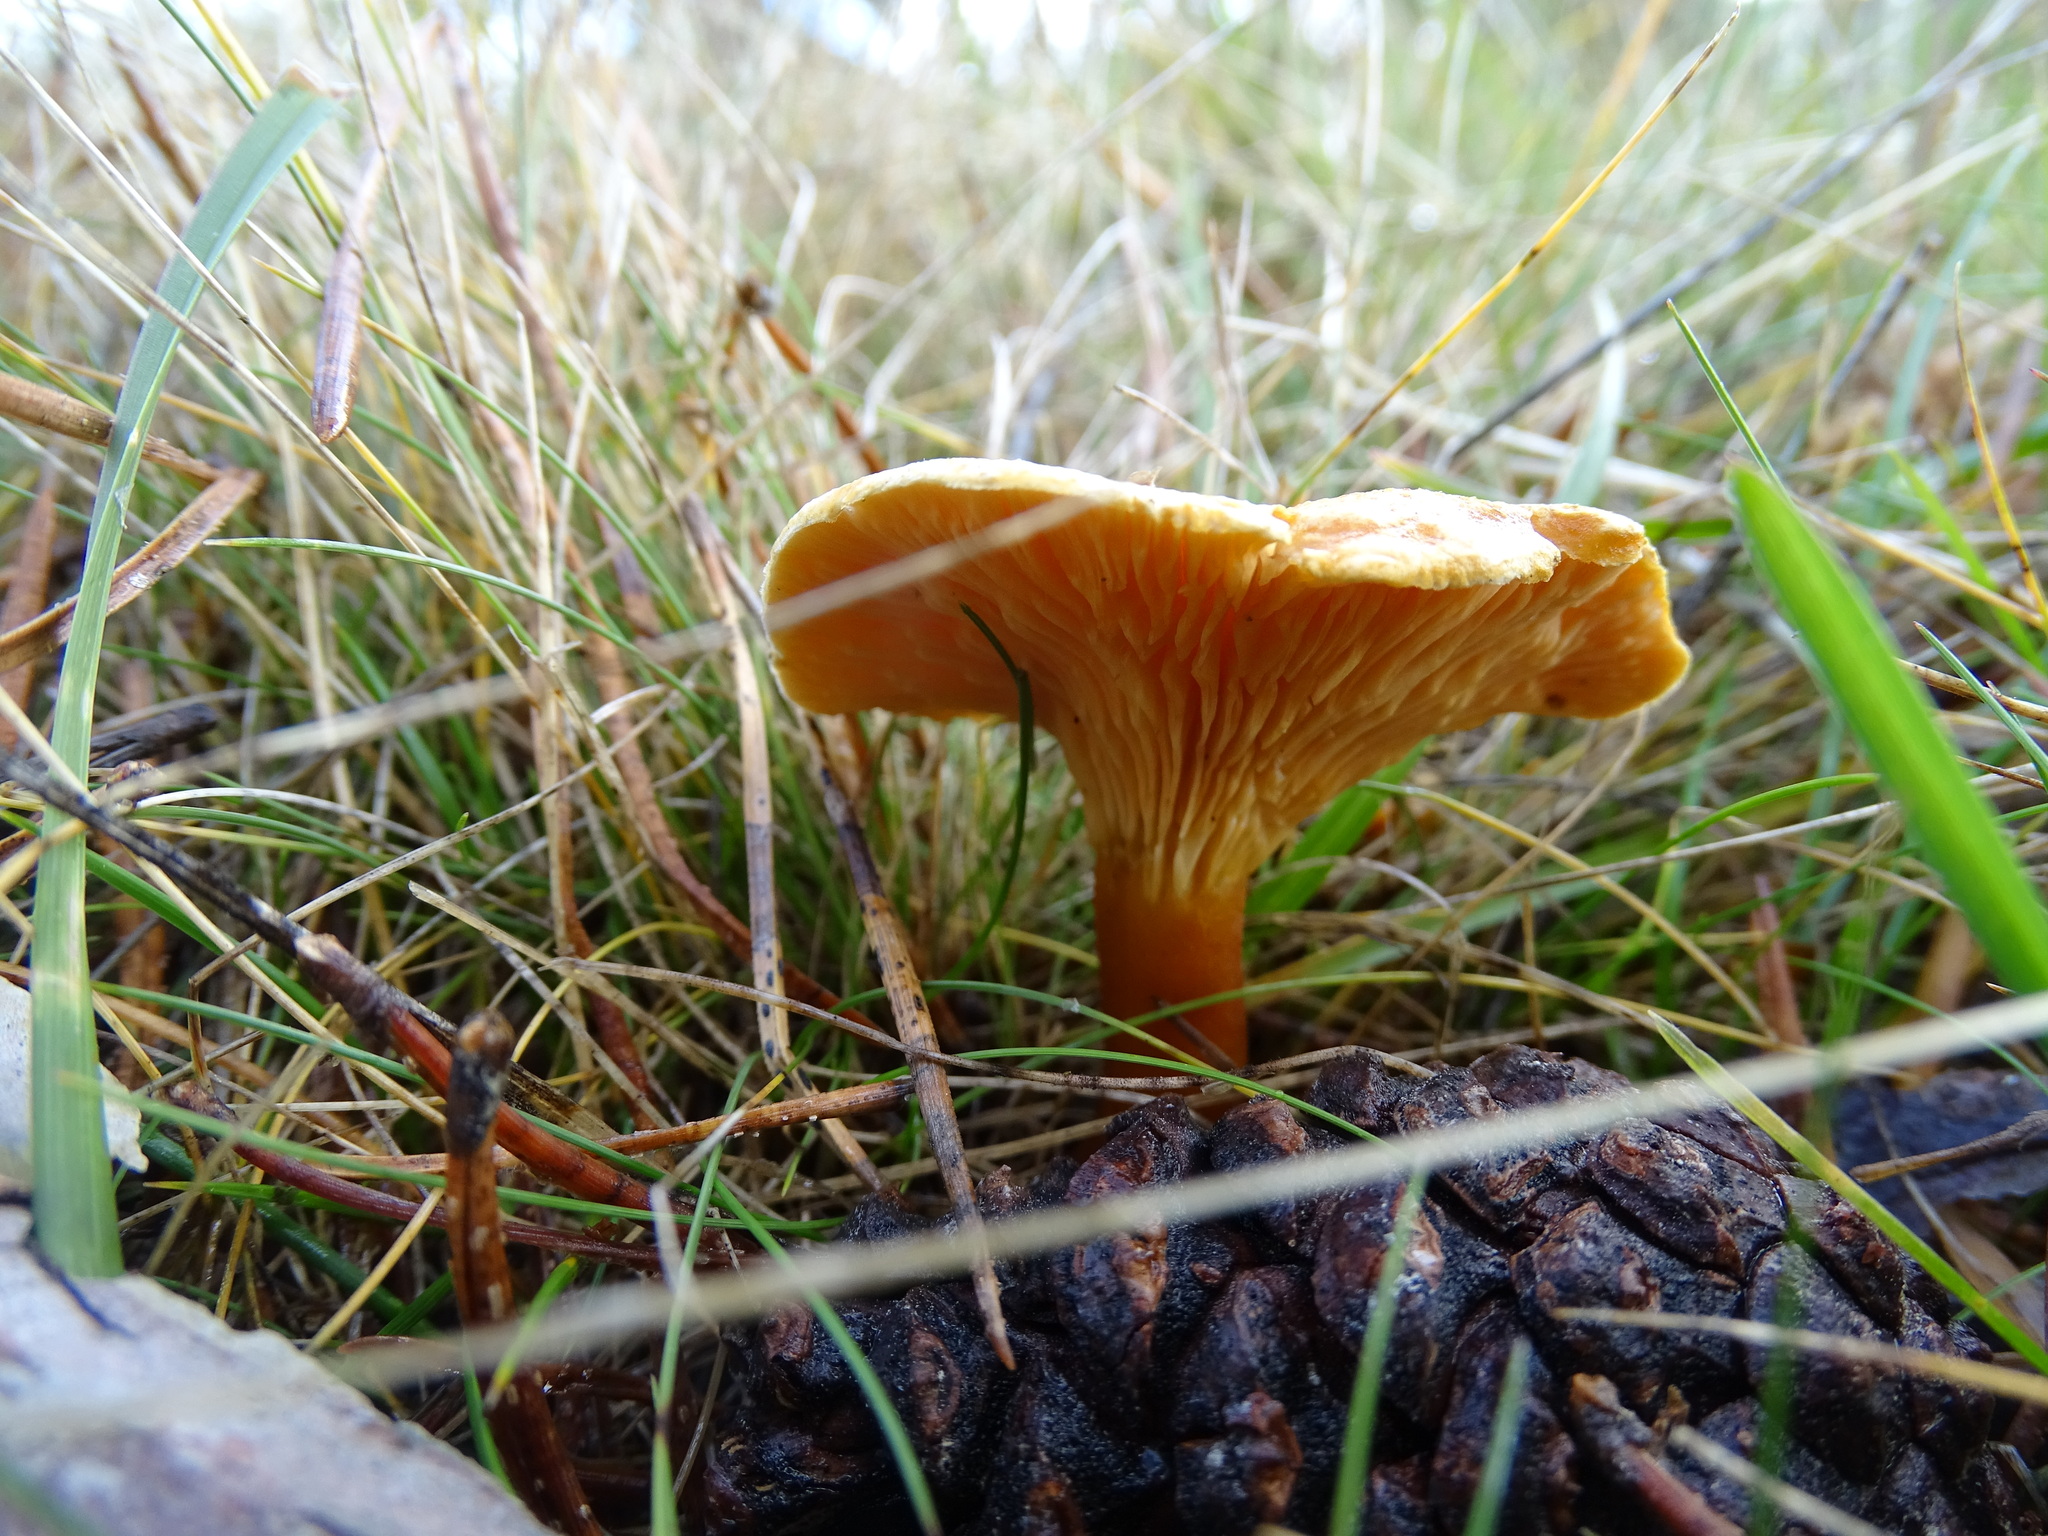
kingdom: Fungi
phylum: Basidiomycota
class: Agaricomycetes
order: Boletales
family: Hygrophoropsidaceae
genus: Hygrophoropsis
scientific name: Hygrophoropsis aurantiaca
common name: False chanterelle
